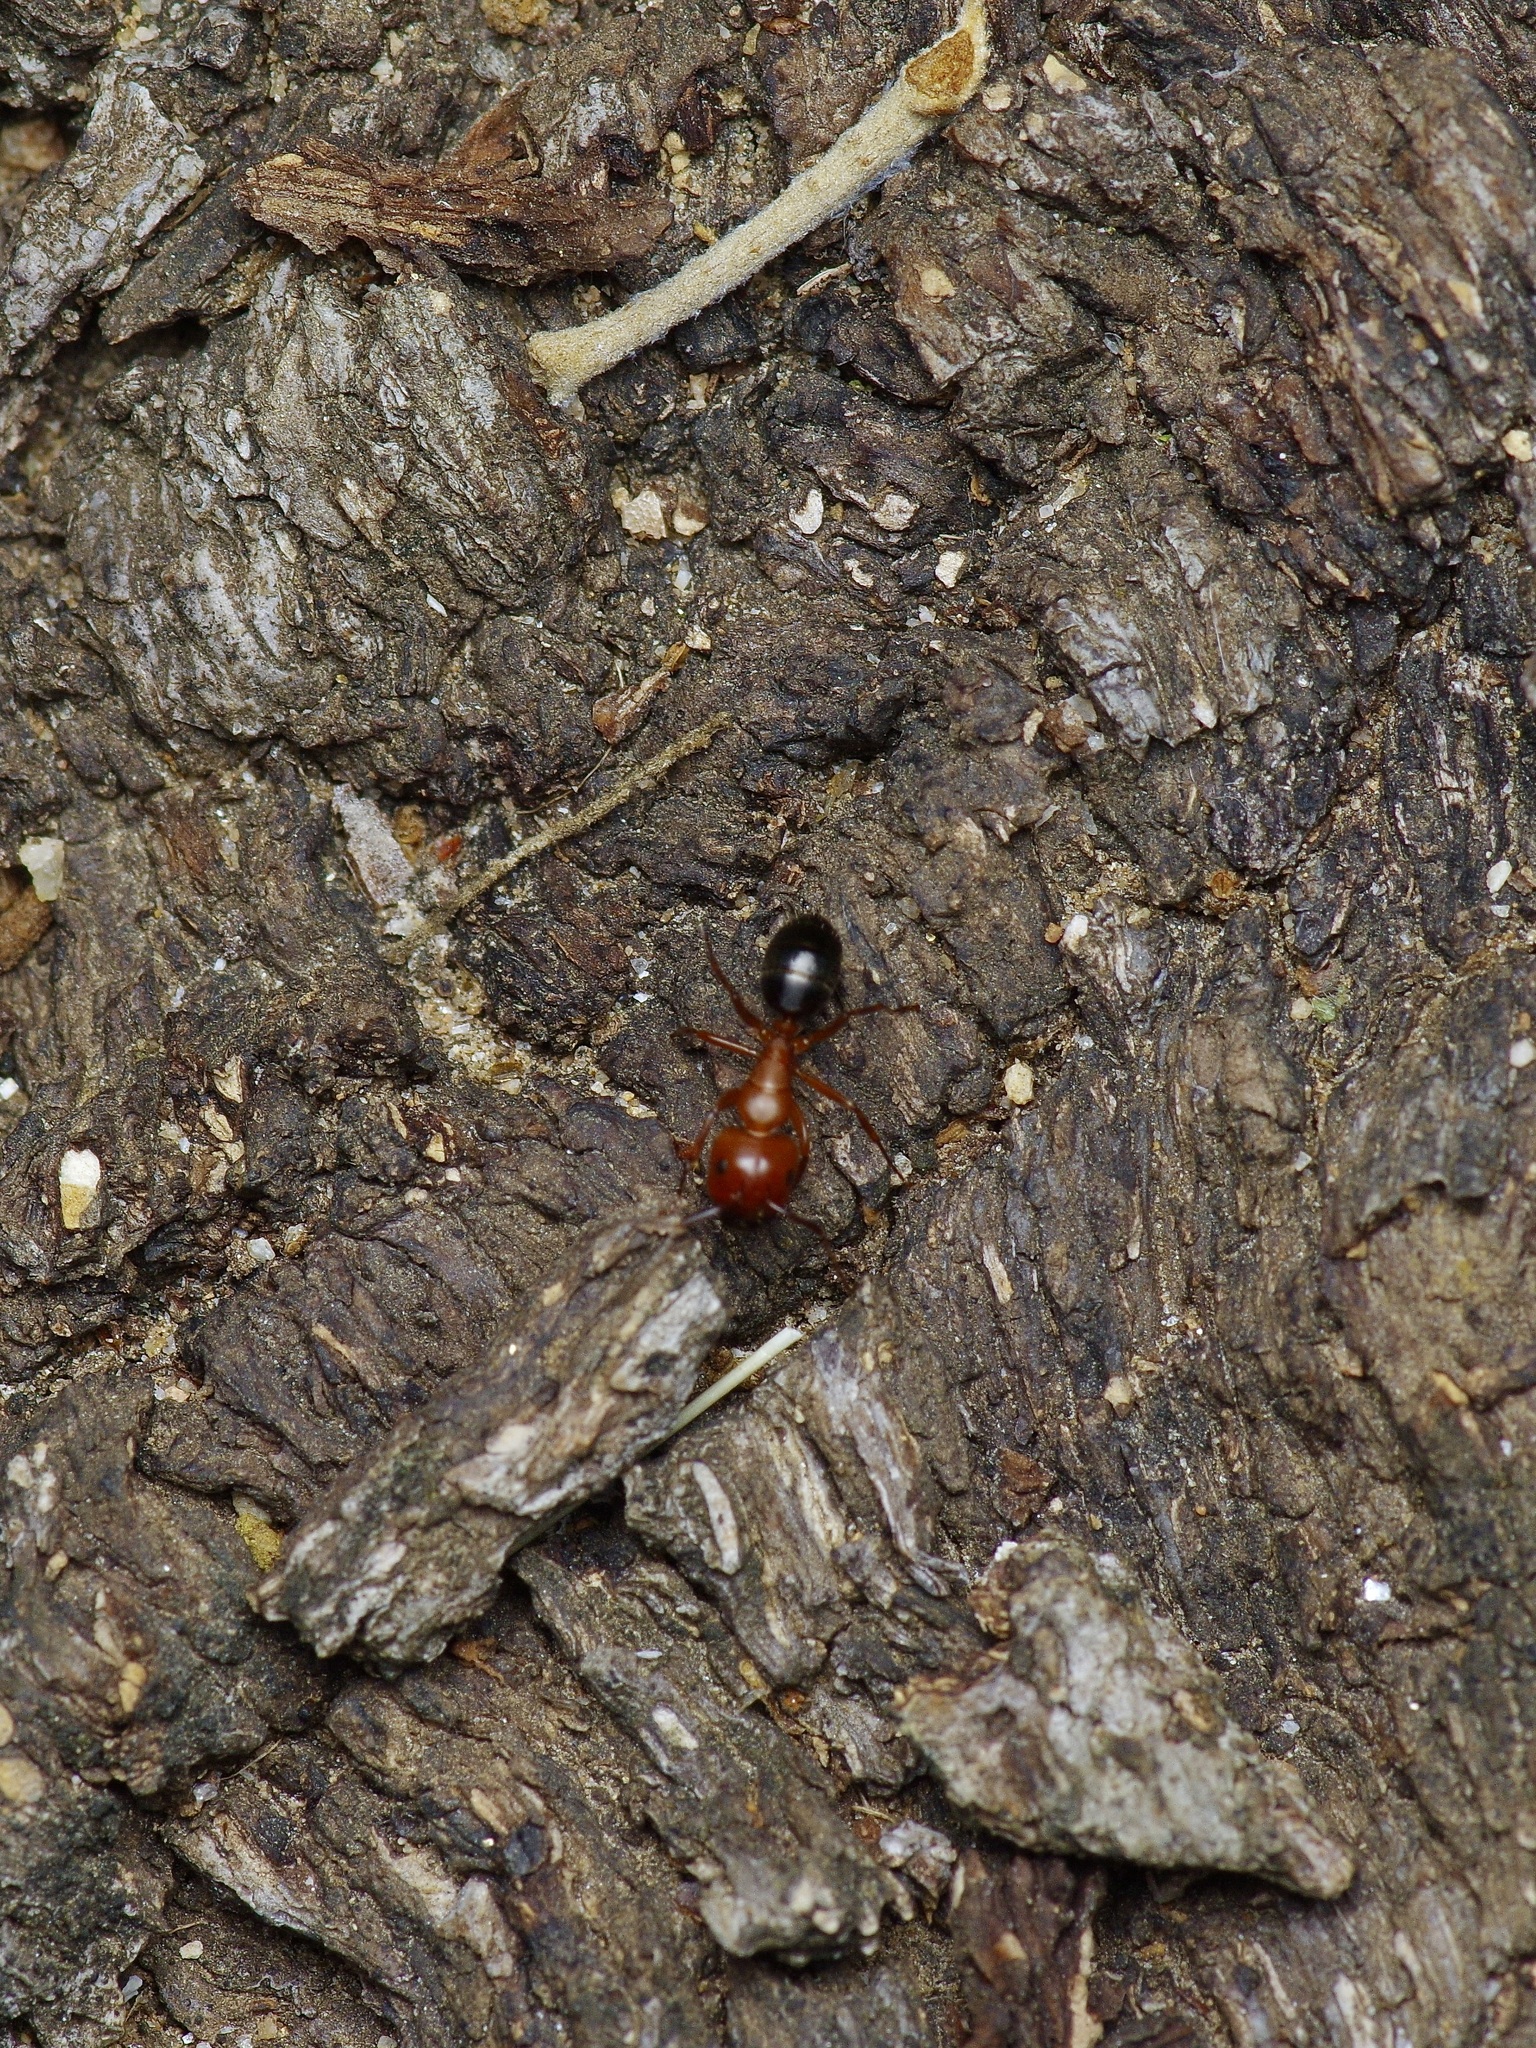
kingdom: Animalia
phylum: Arthropoda
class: Insecta
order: Hymenoptera
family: Formicidae
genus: Camponotus
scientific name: Camponotus decipiens
